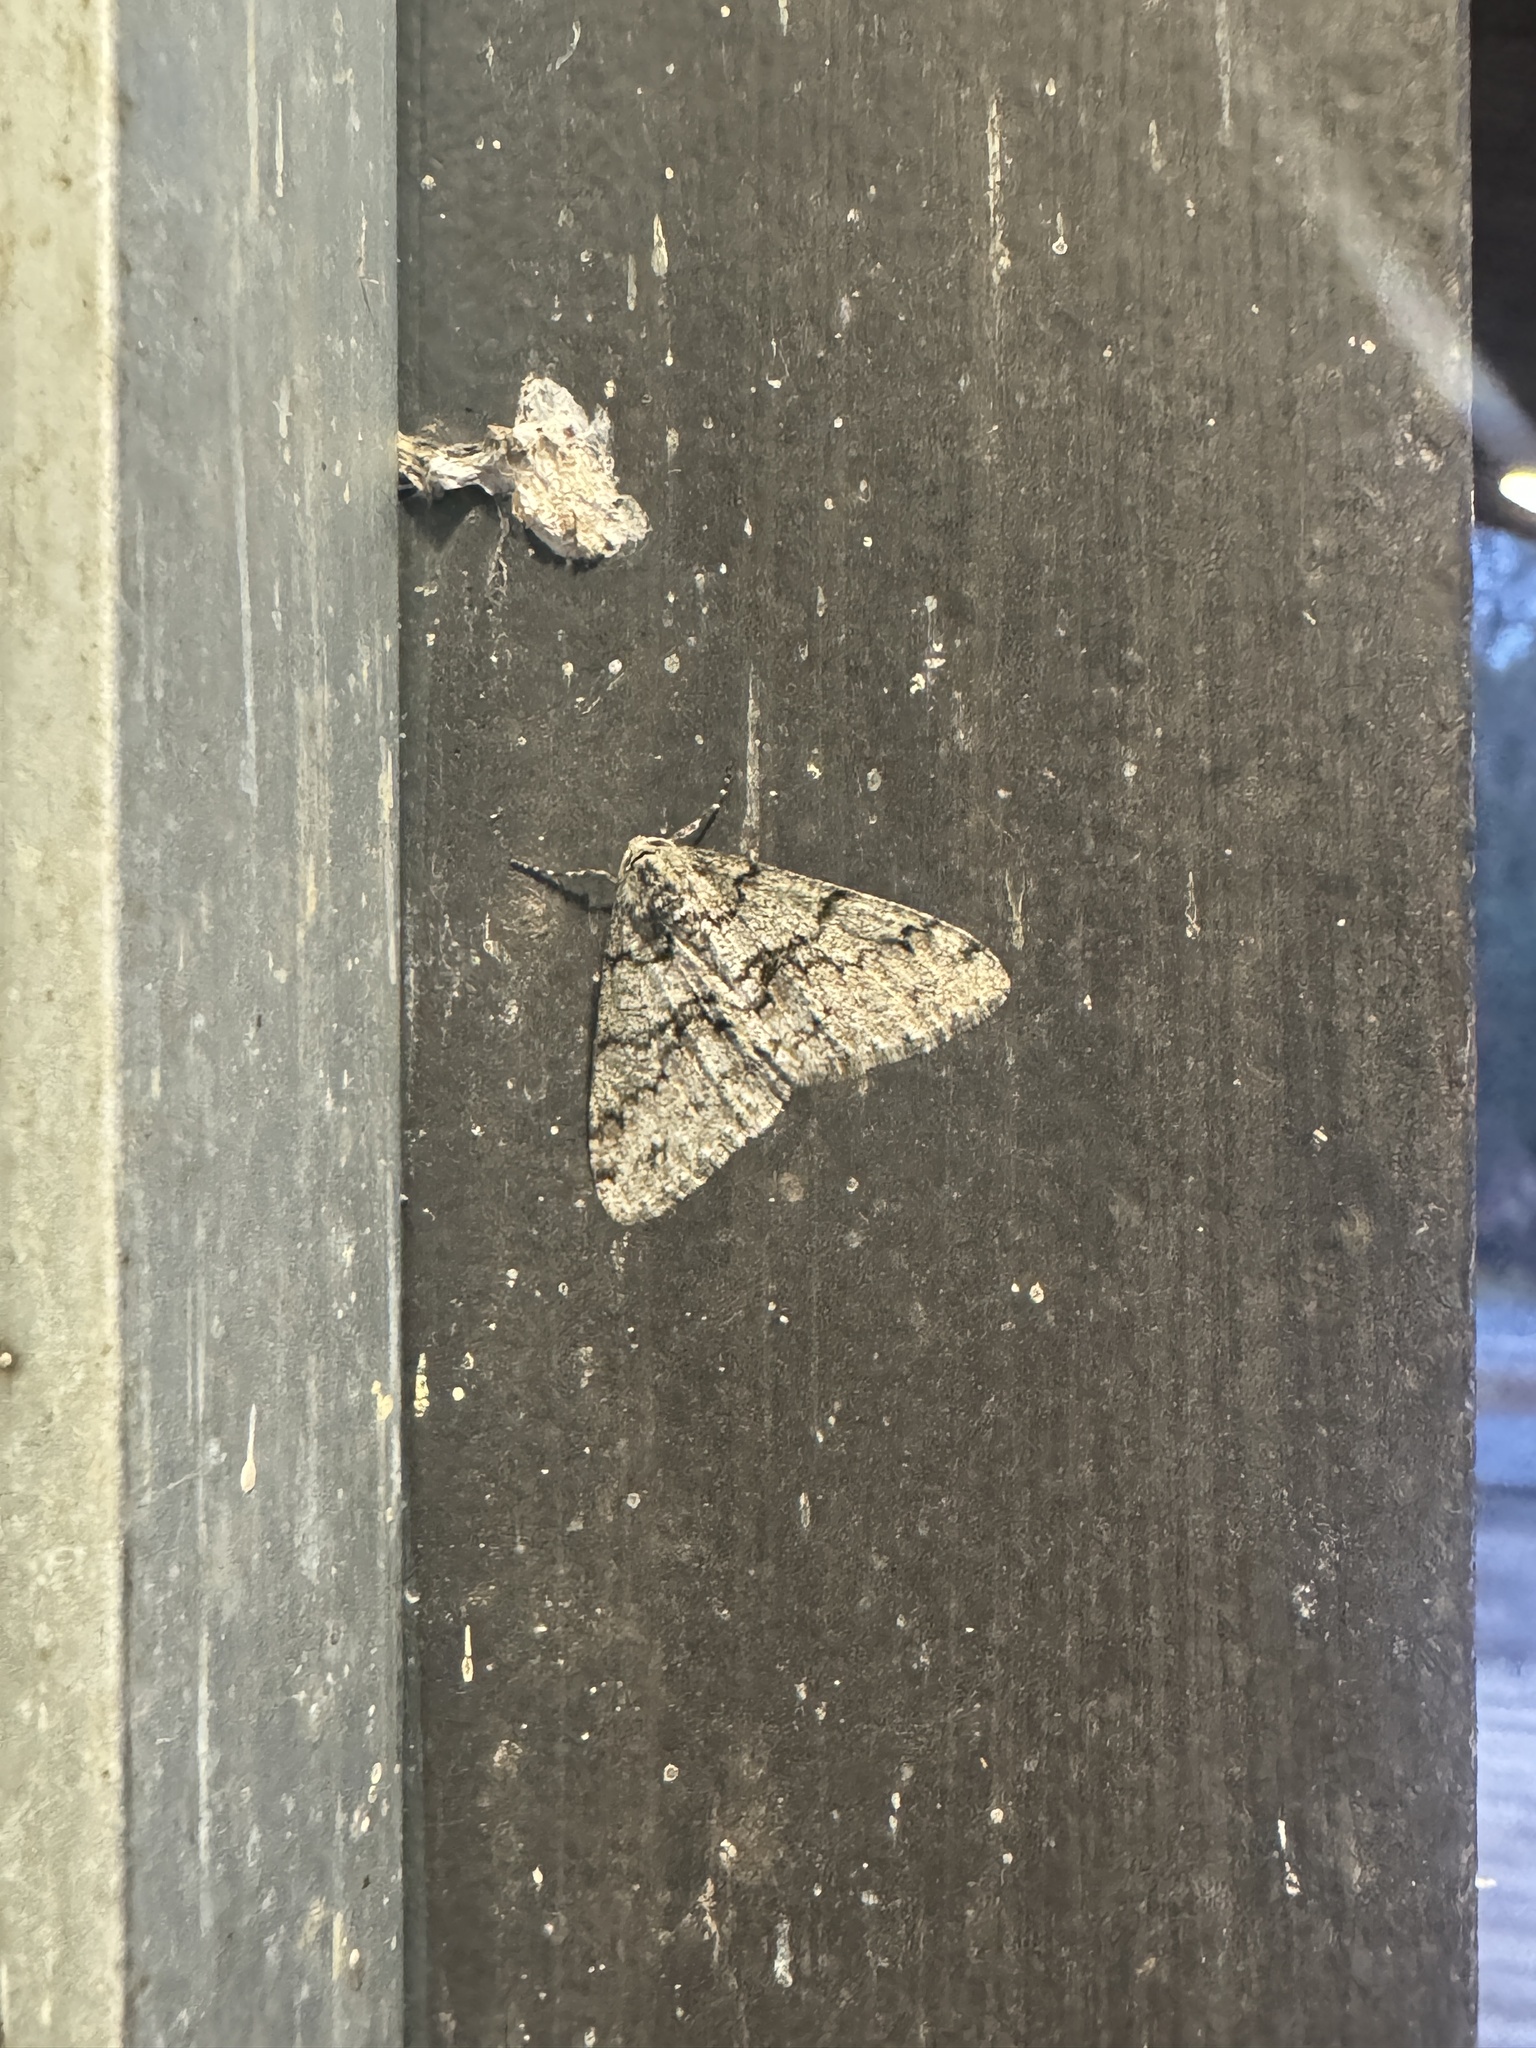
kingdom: Animalia
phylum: Arthropoda
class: Insecta
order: Lepidoptera
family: Geometridae
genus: Phigalia
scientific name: Phigalia denticulata
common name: Toothed phigalia
